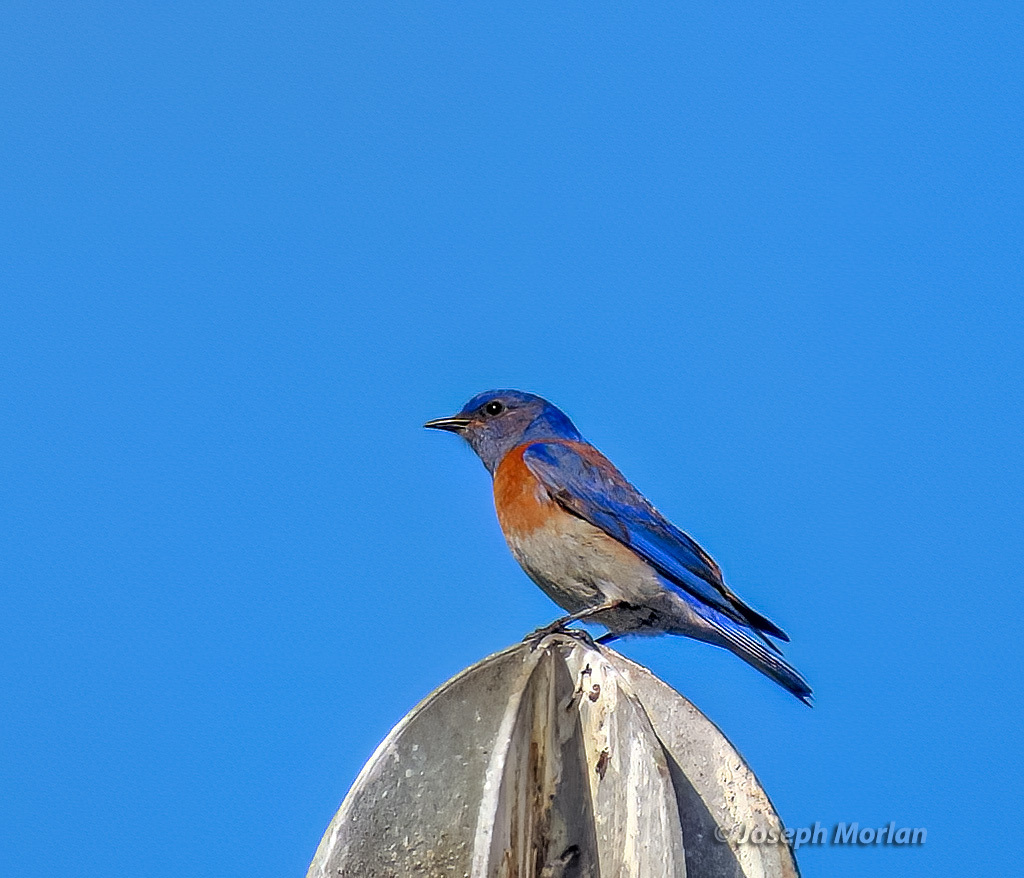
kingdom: Animalia
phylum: Chordata
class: Aves
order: Passeriformes
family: Turdidae
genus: Sialia
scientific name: Sialia mexicana
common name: Western bluebird
